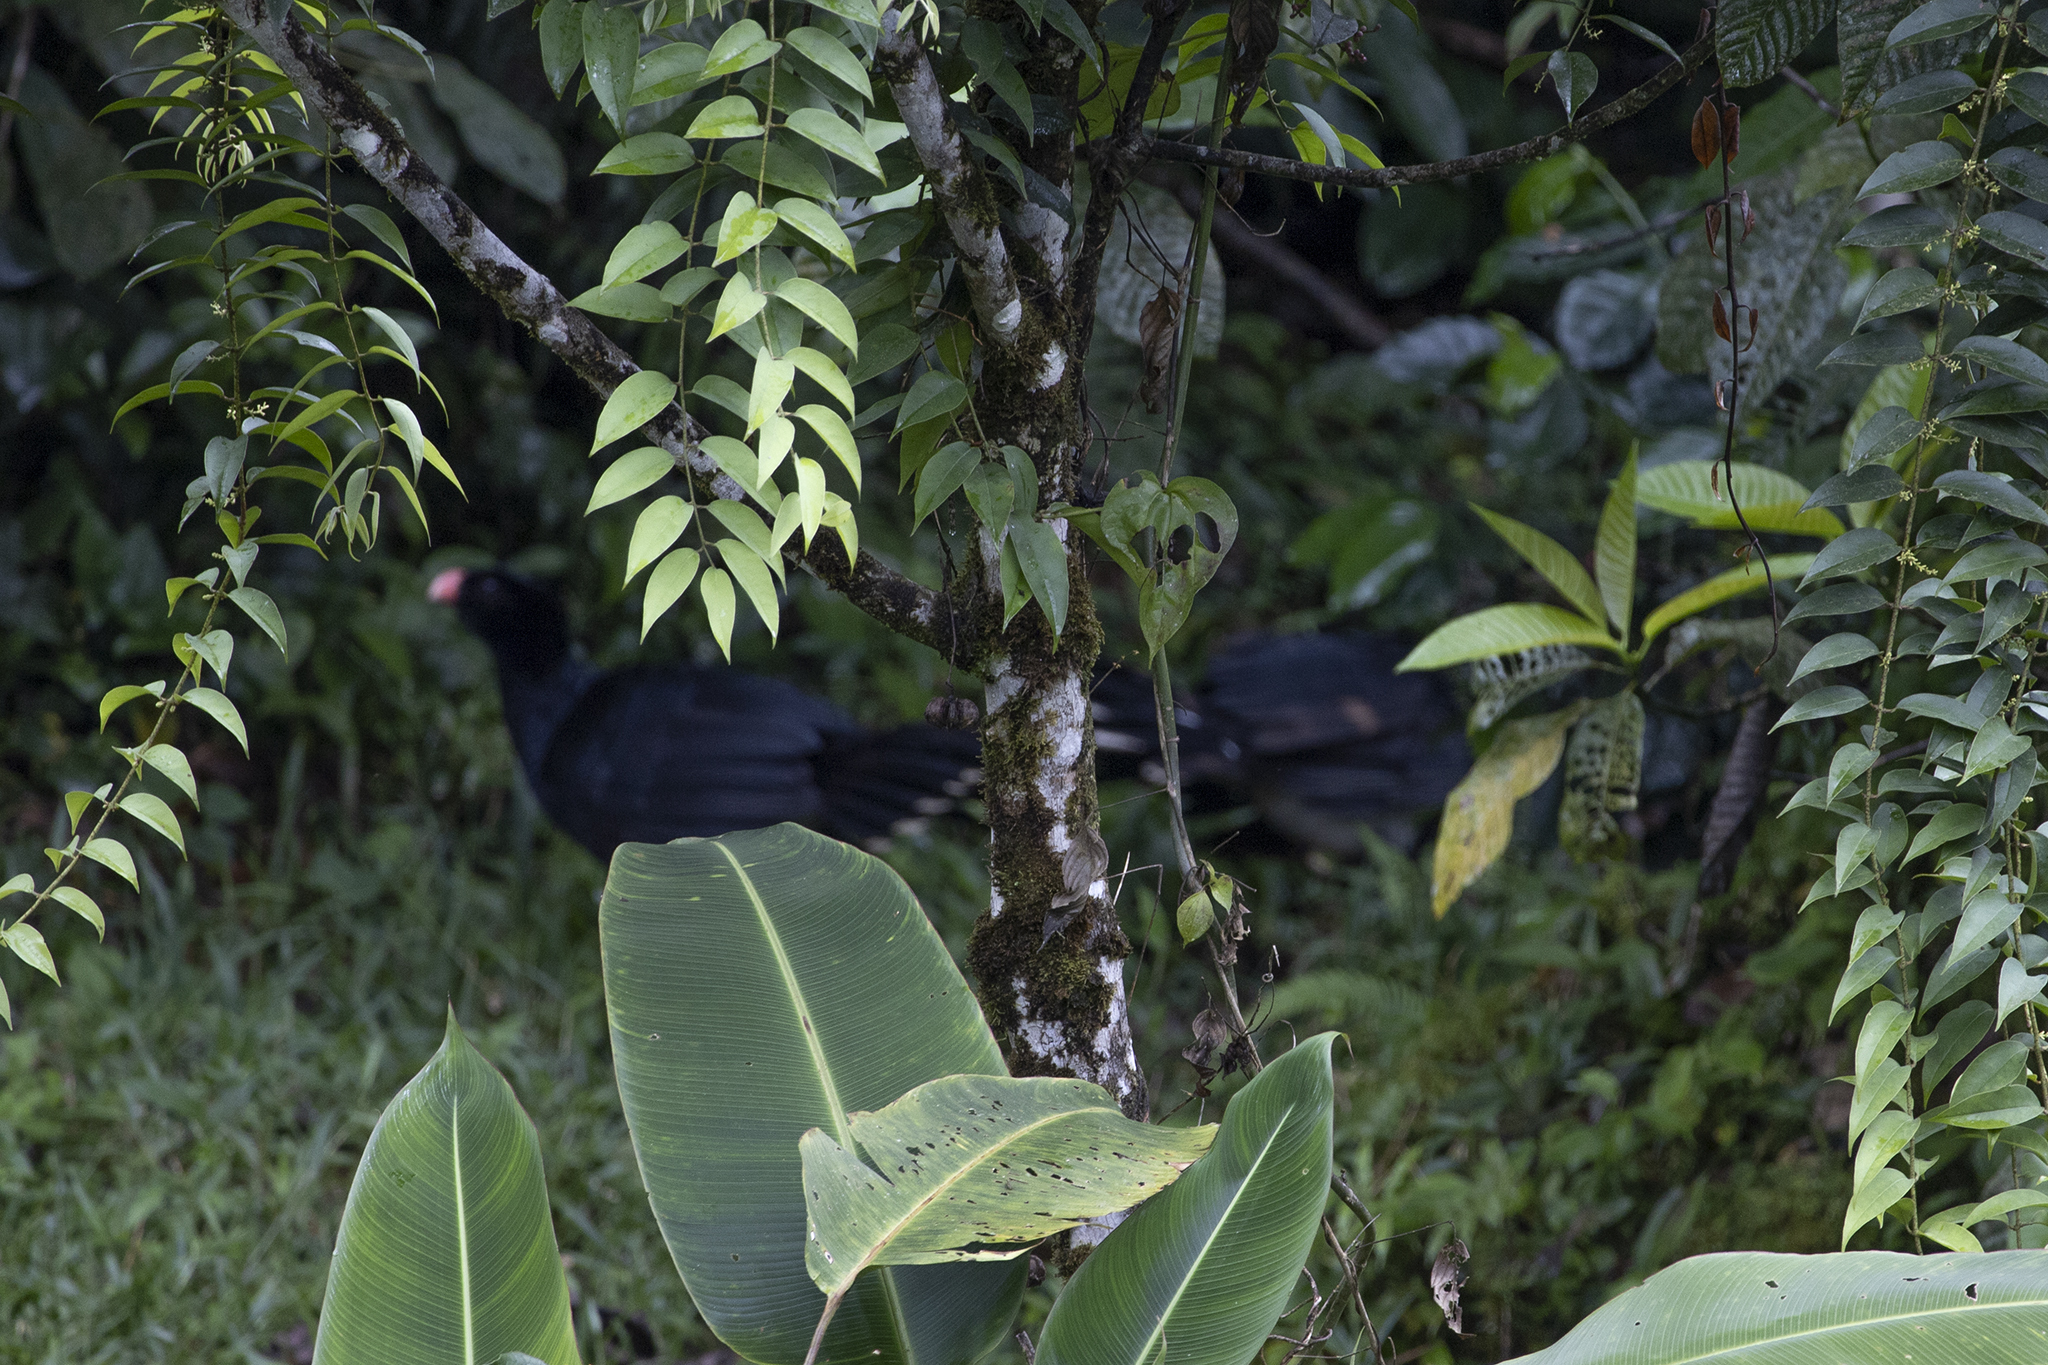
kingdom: Animalia
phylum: Chordata
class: Aves
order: Galliformes
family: Cracidae
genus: Mitu
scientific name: Mitu salvini
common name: Salvin's curassow
